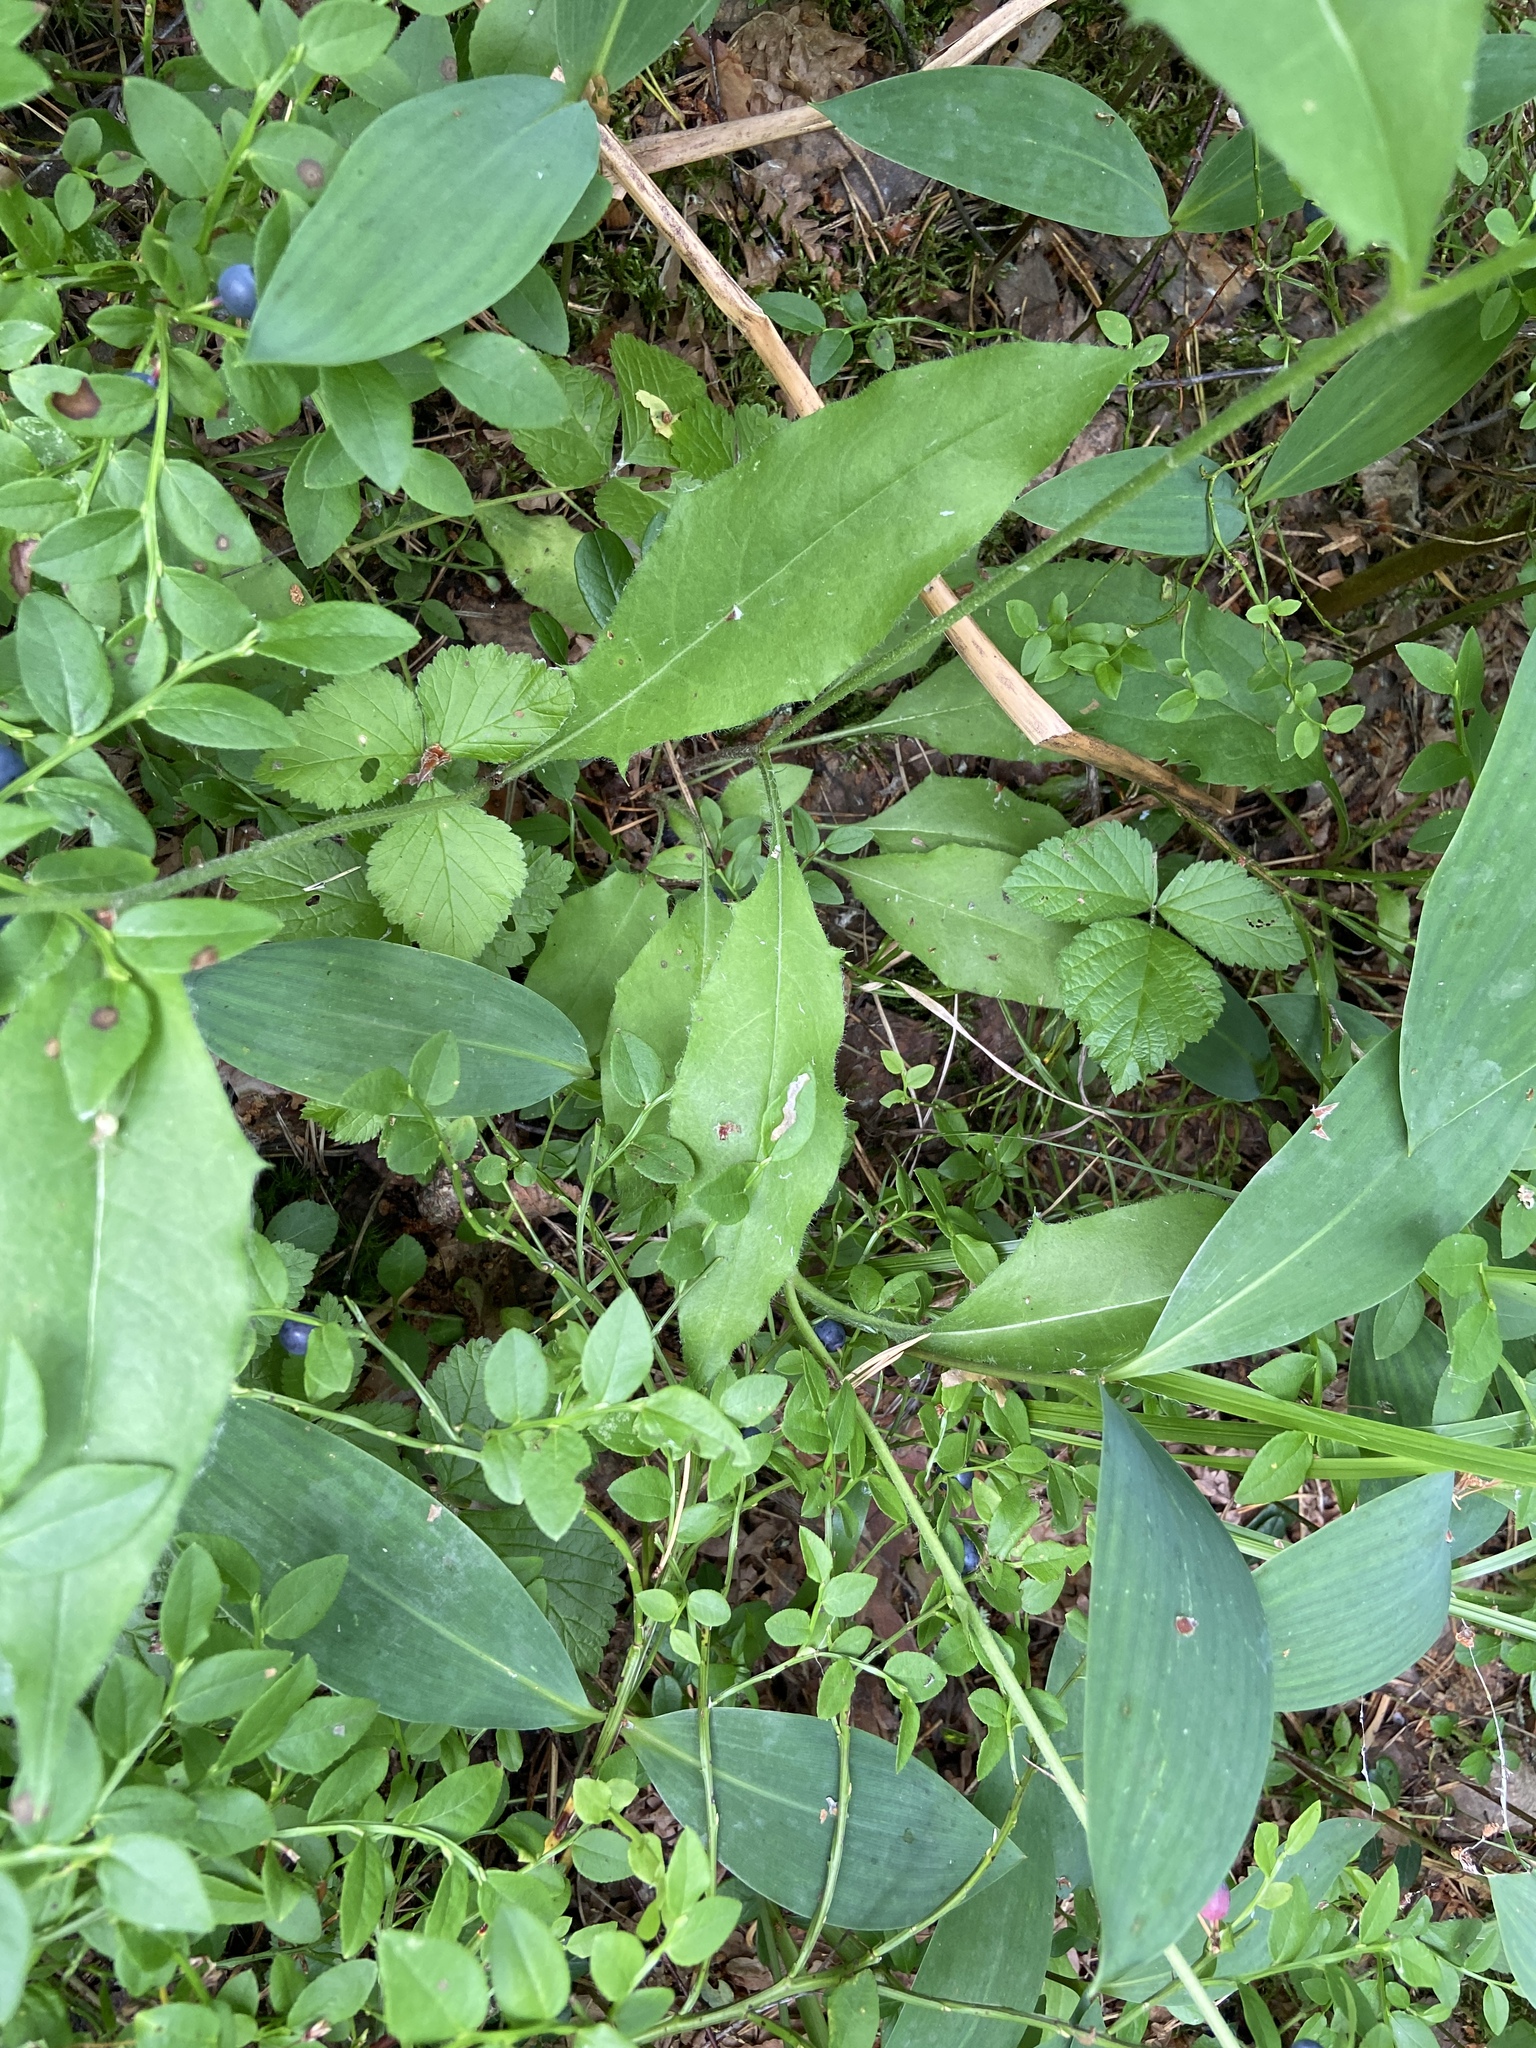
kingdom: Plantae
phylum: Tracheophyta
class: Liliopsida
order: Asparagales
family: Asparagaceae
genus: Convallaria
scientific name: Convallaria majalis
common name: Lily-of-the-valley
